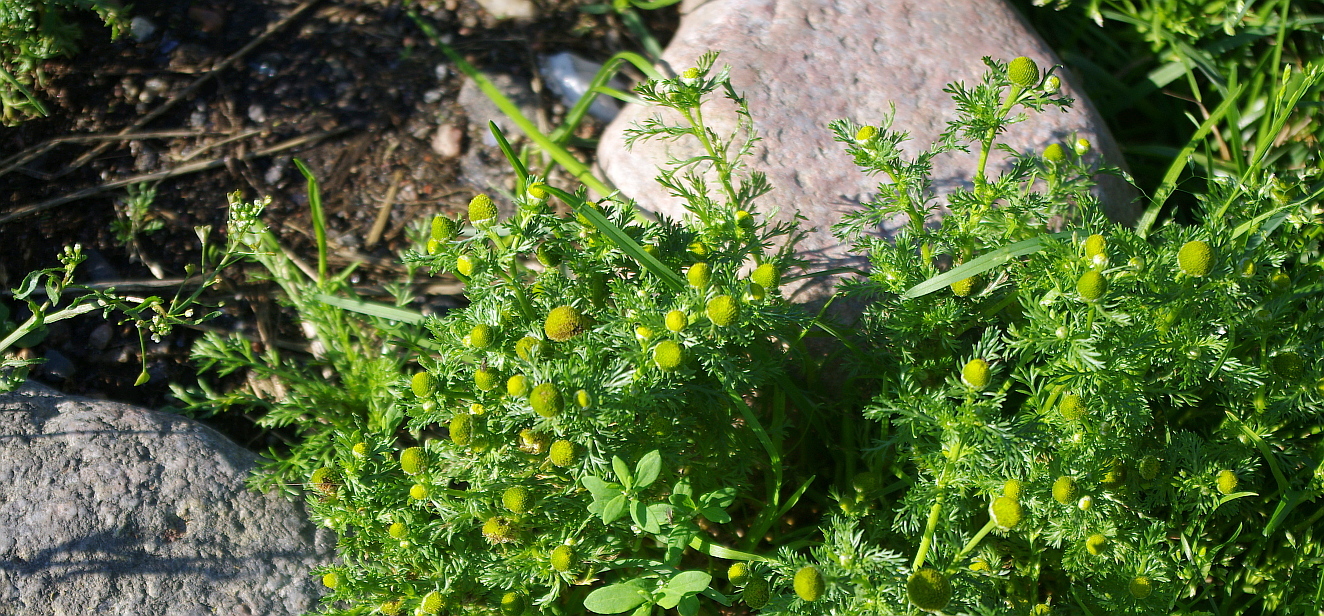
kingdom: Plantae
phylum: Tracheophyta
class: Magnoliopsida
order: Asterales
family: Asteraceae
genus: Matricaria
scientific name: Matricaria discoidea
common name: Disc mayweed
